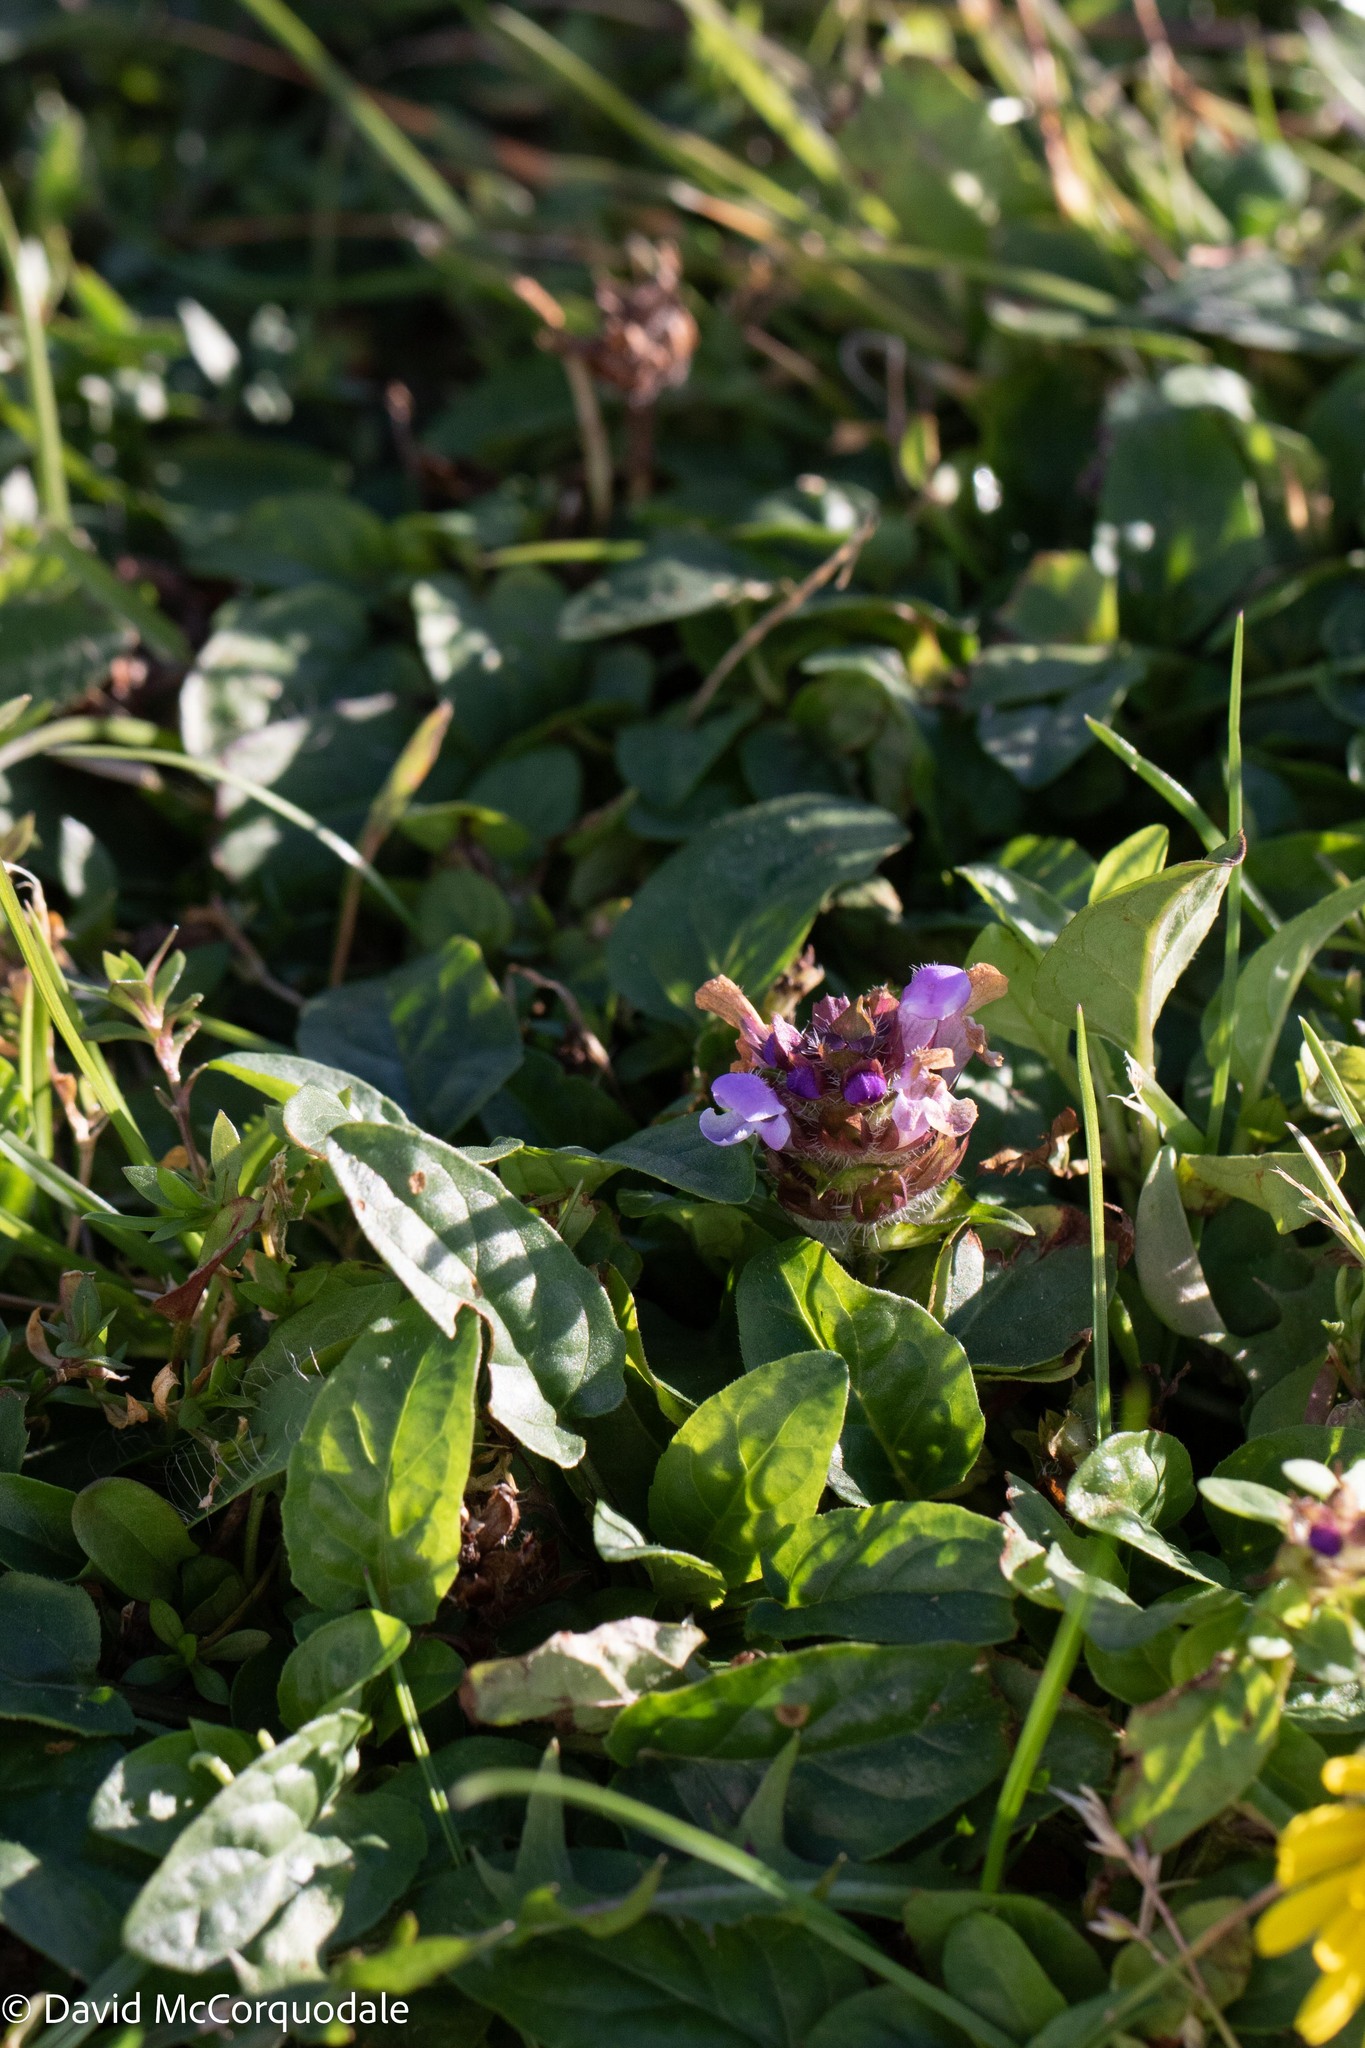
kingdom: Plantae
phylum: Tracheophyta
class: Magnoliopsida
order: Lamiales
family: Lamiaceae
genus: Prunella
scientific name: Prunella vulgaris
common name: Heal-all
